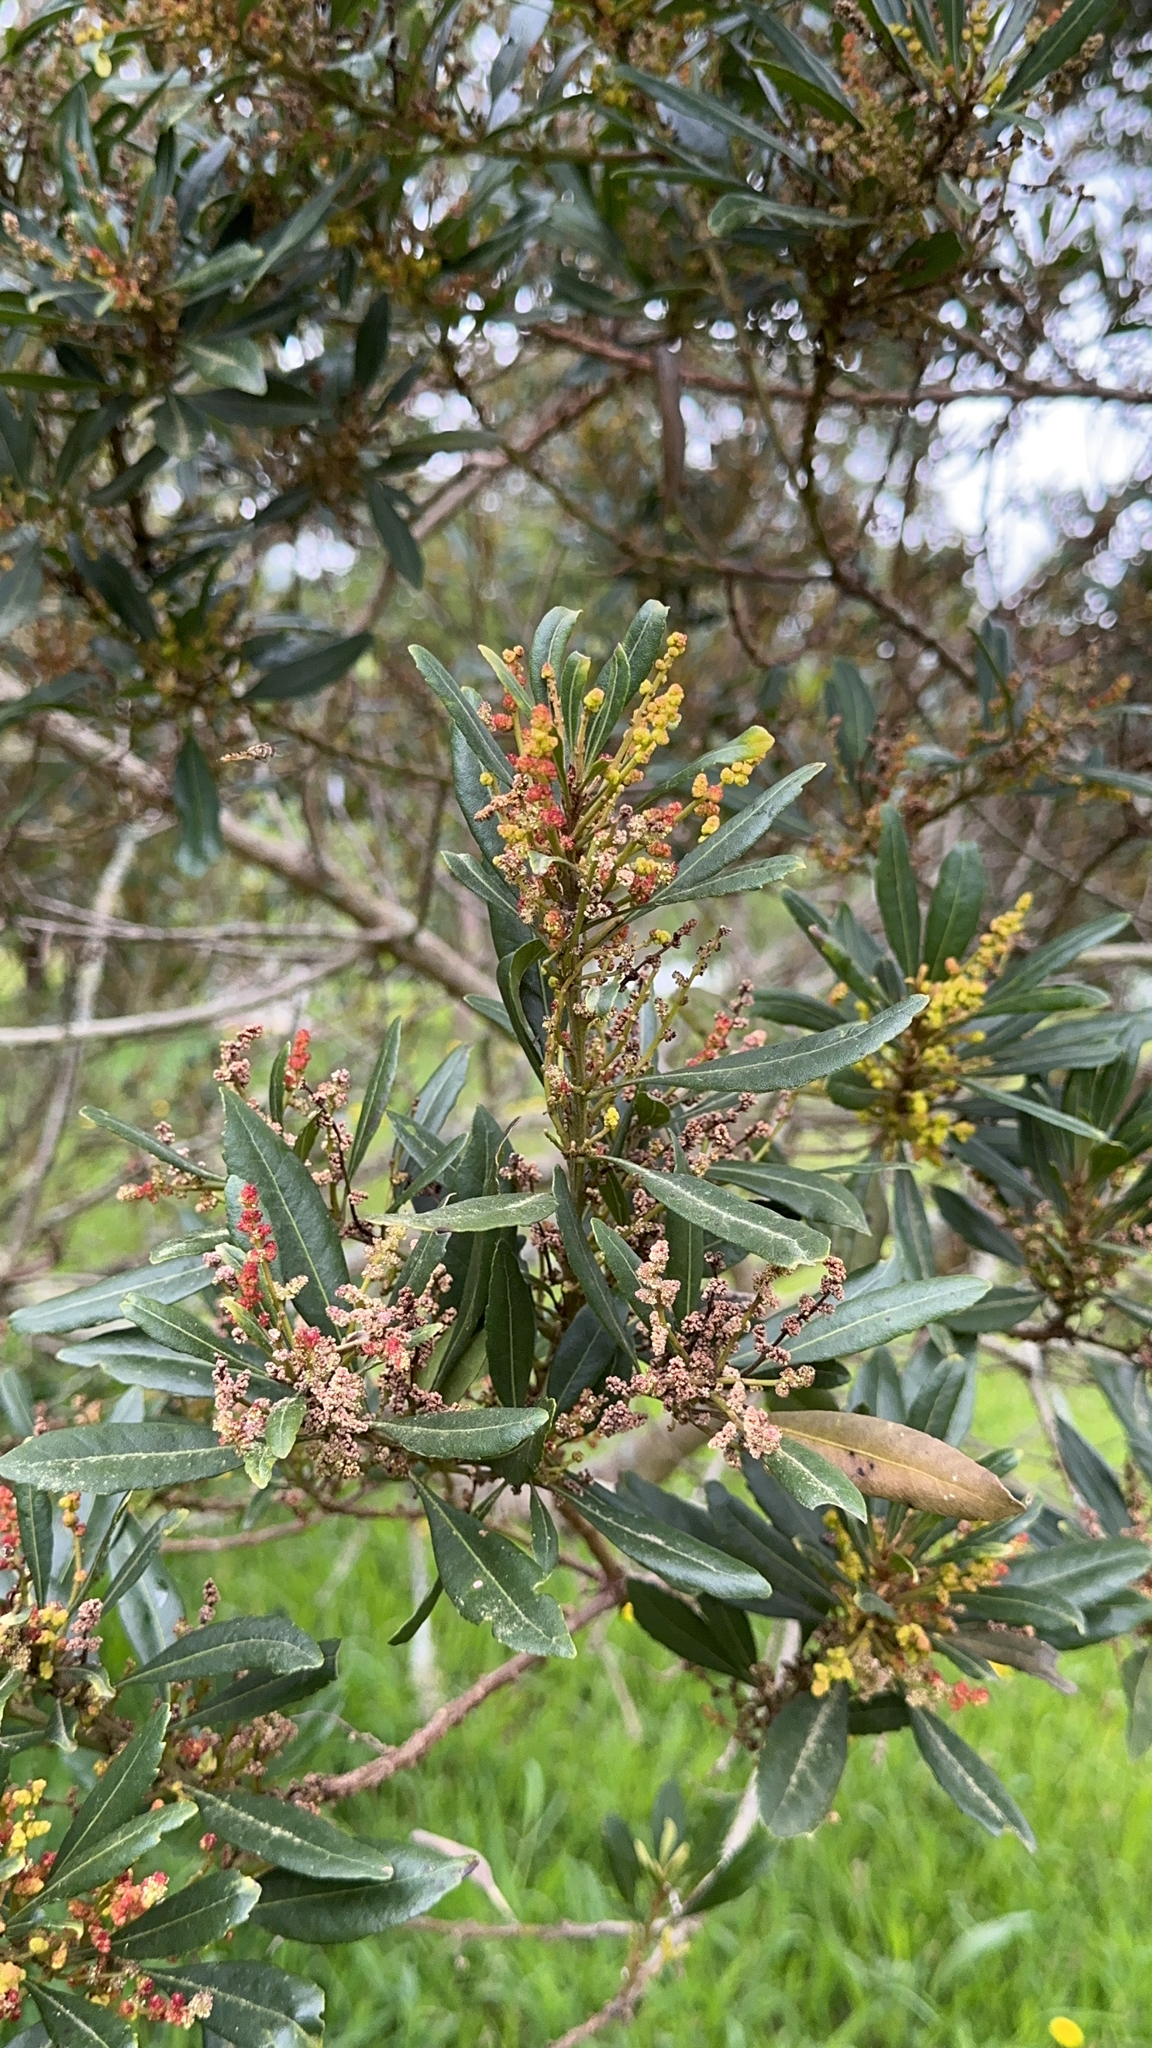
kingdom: Plantae
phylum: Tracheophyta
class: Magnoliopsida
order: Fagales
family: Myricaceae
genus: Morella
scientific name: Morella faya
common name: Firetree
